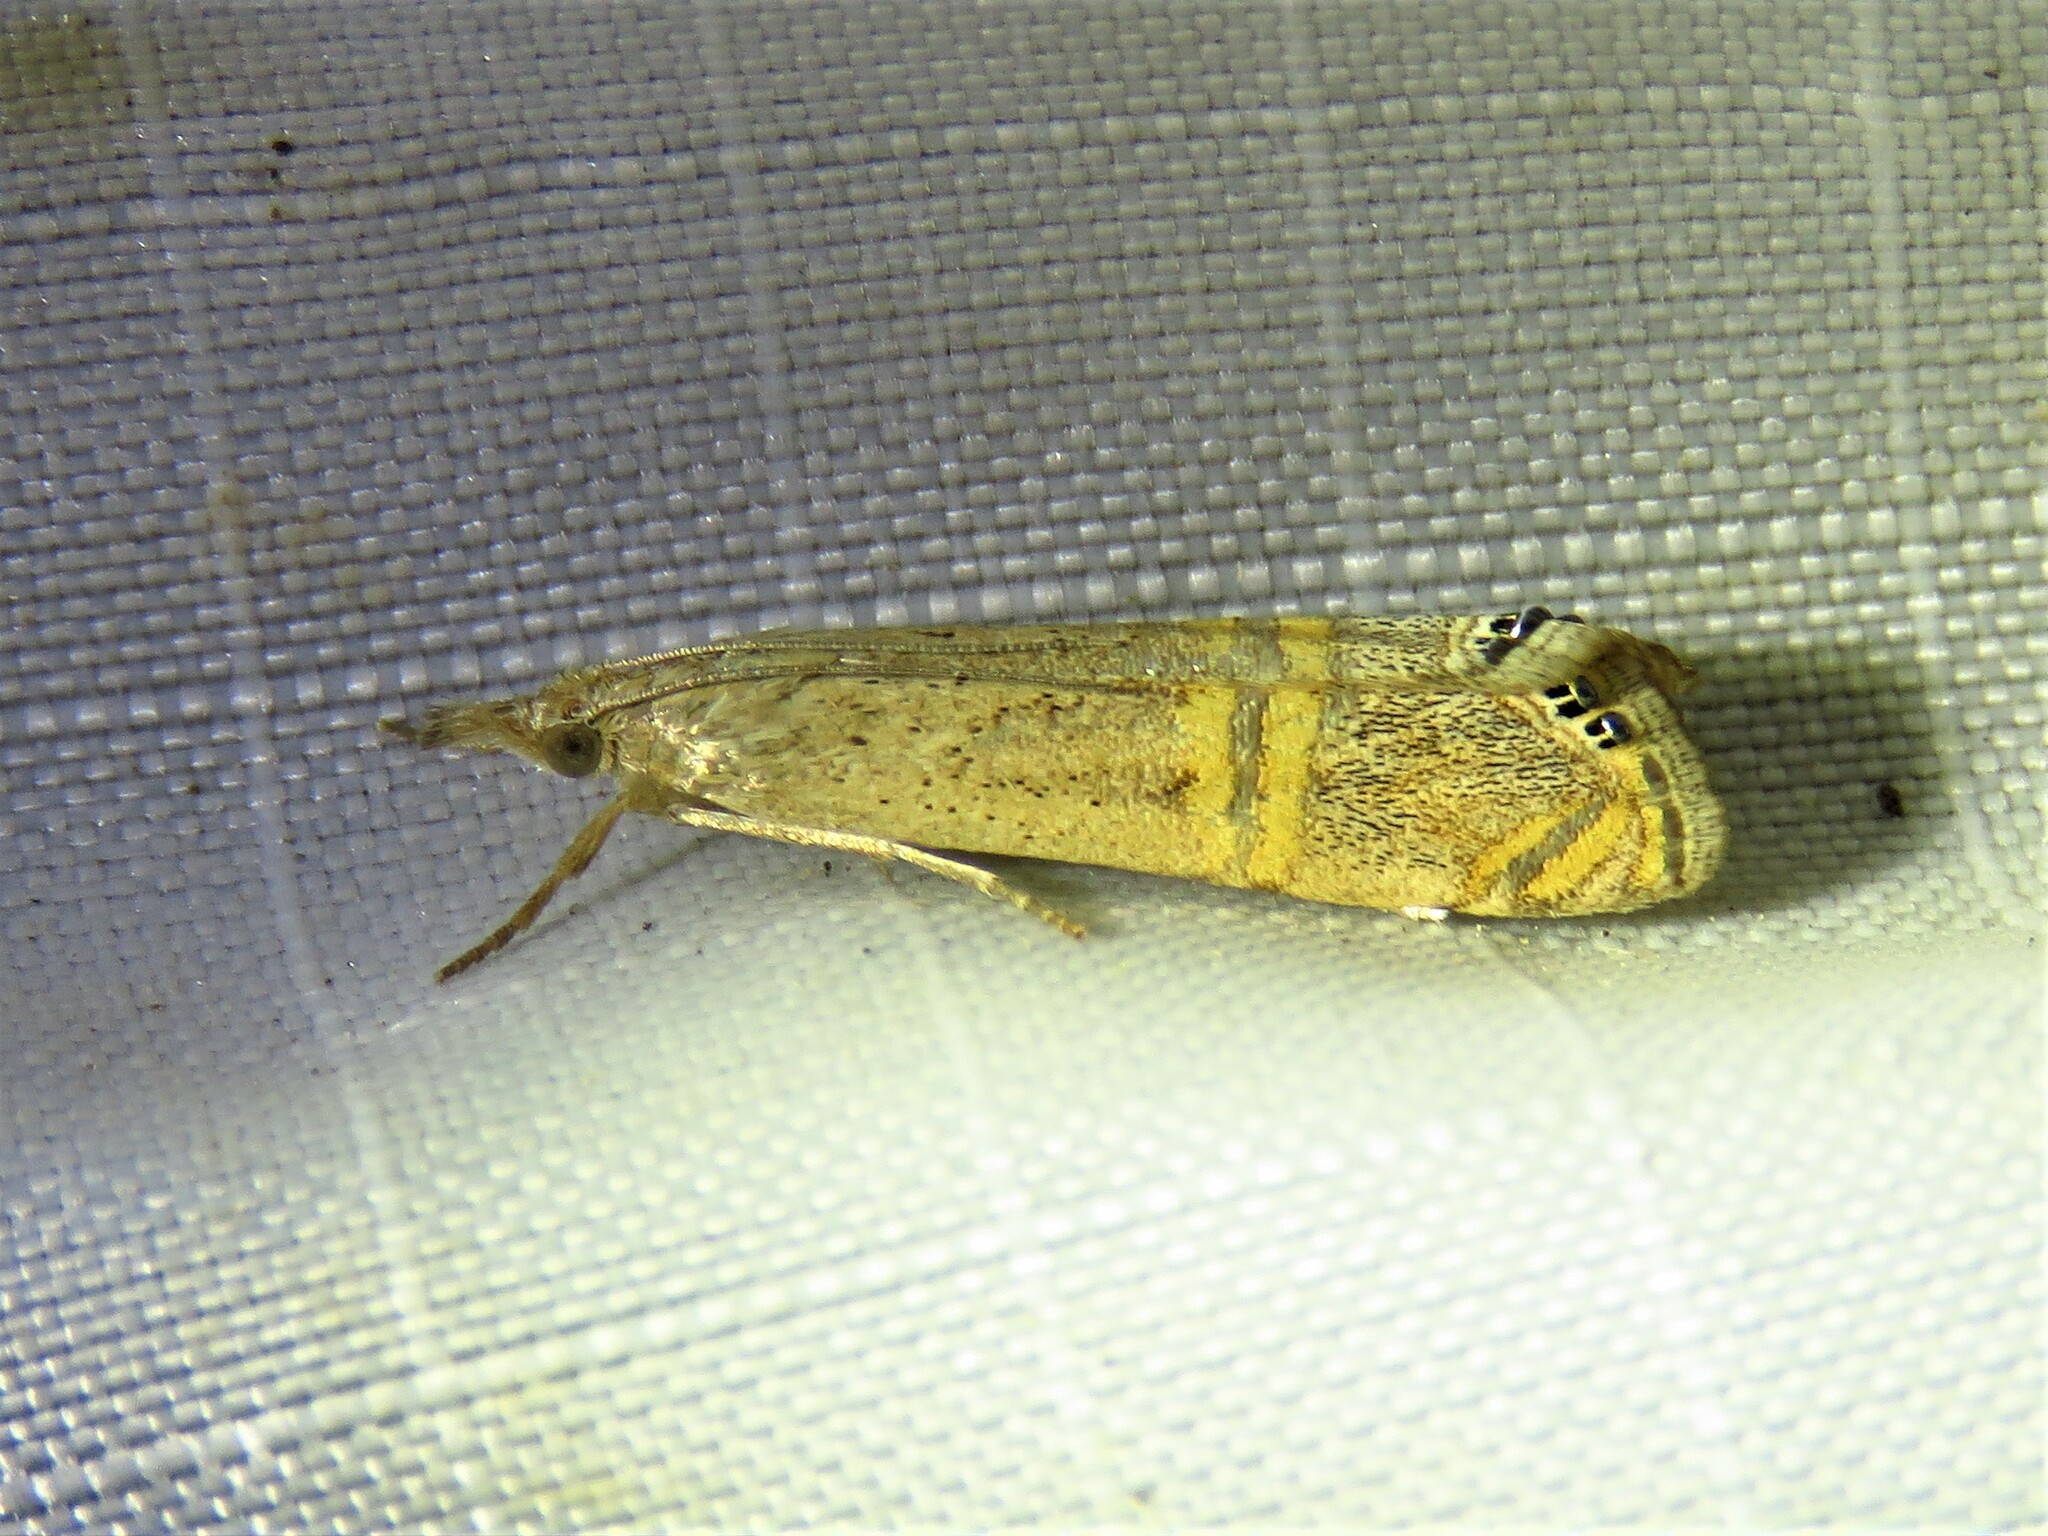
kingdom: Animalia
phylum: Arthropoda
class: Insecta
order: Lepidoptera
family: Crambidae
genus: Euchromius
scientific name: Euchromius ocellea
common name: Necklace veneer moth
